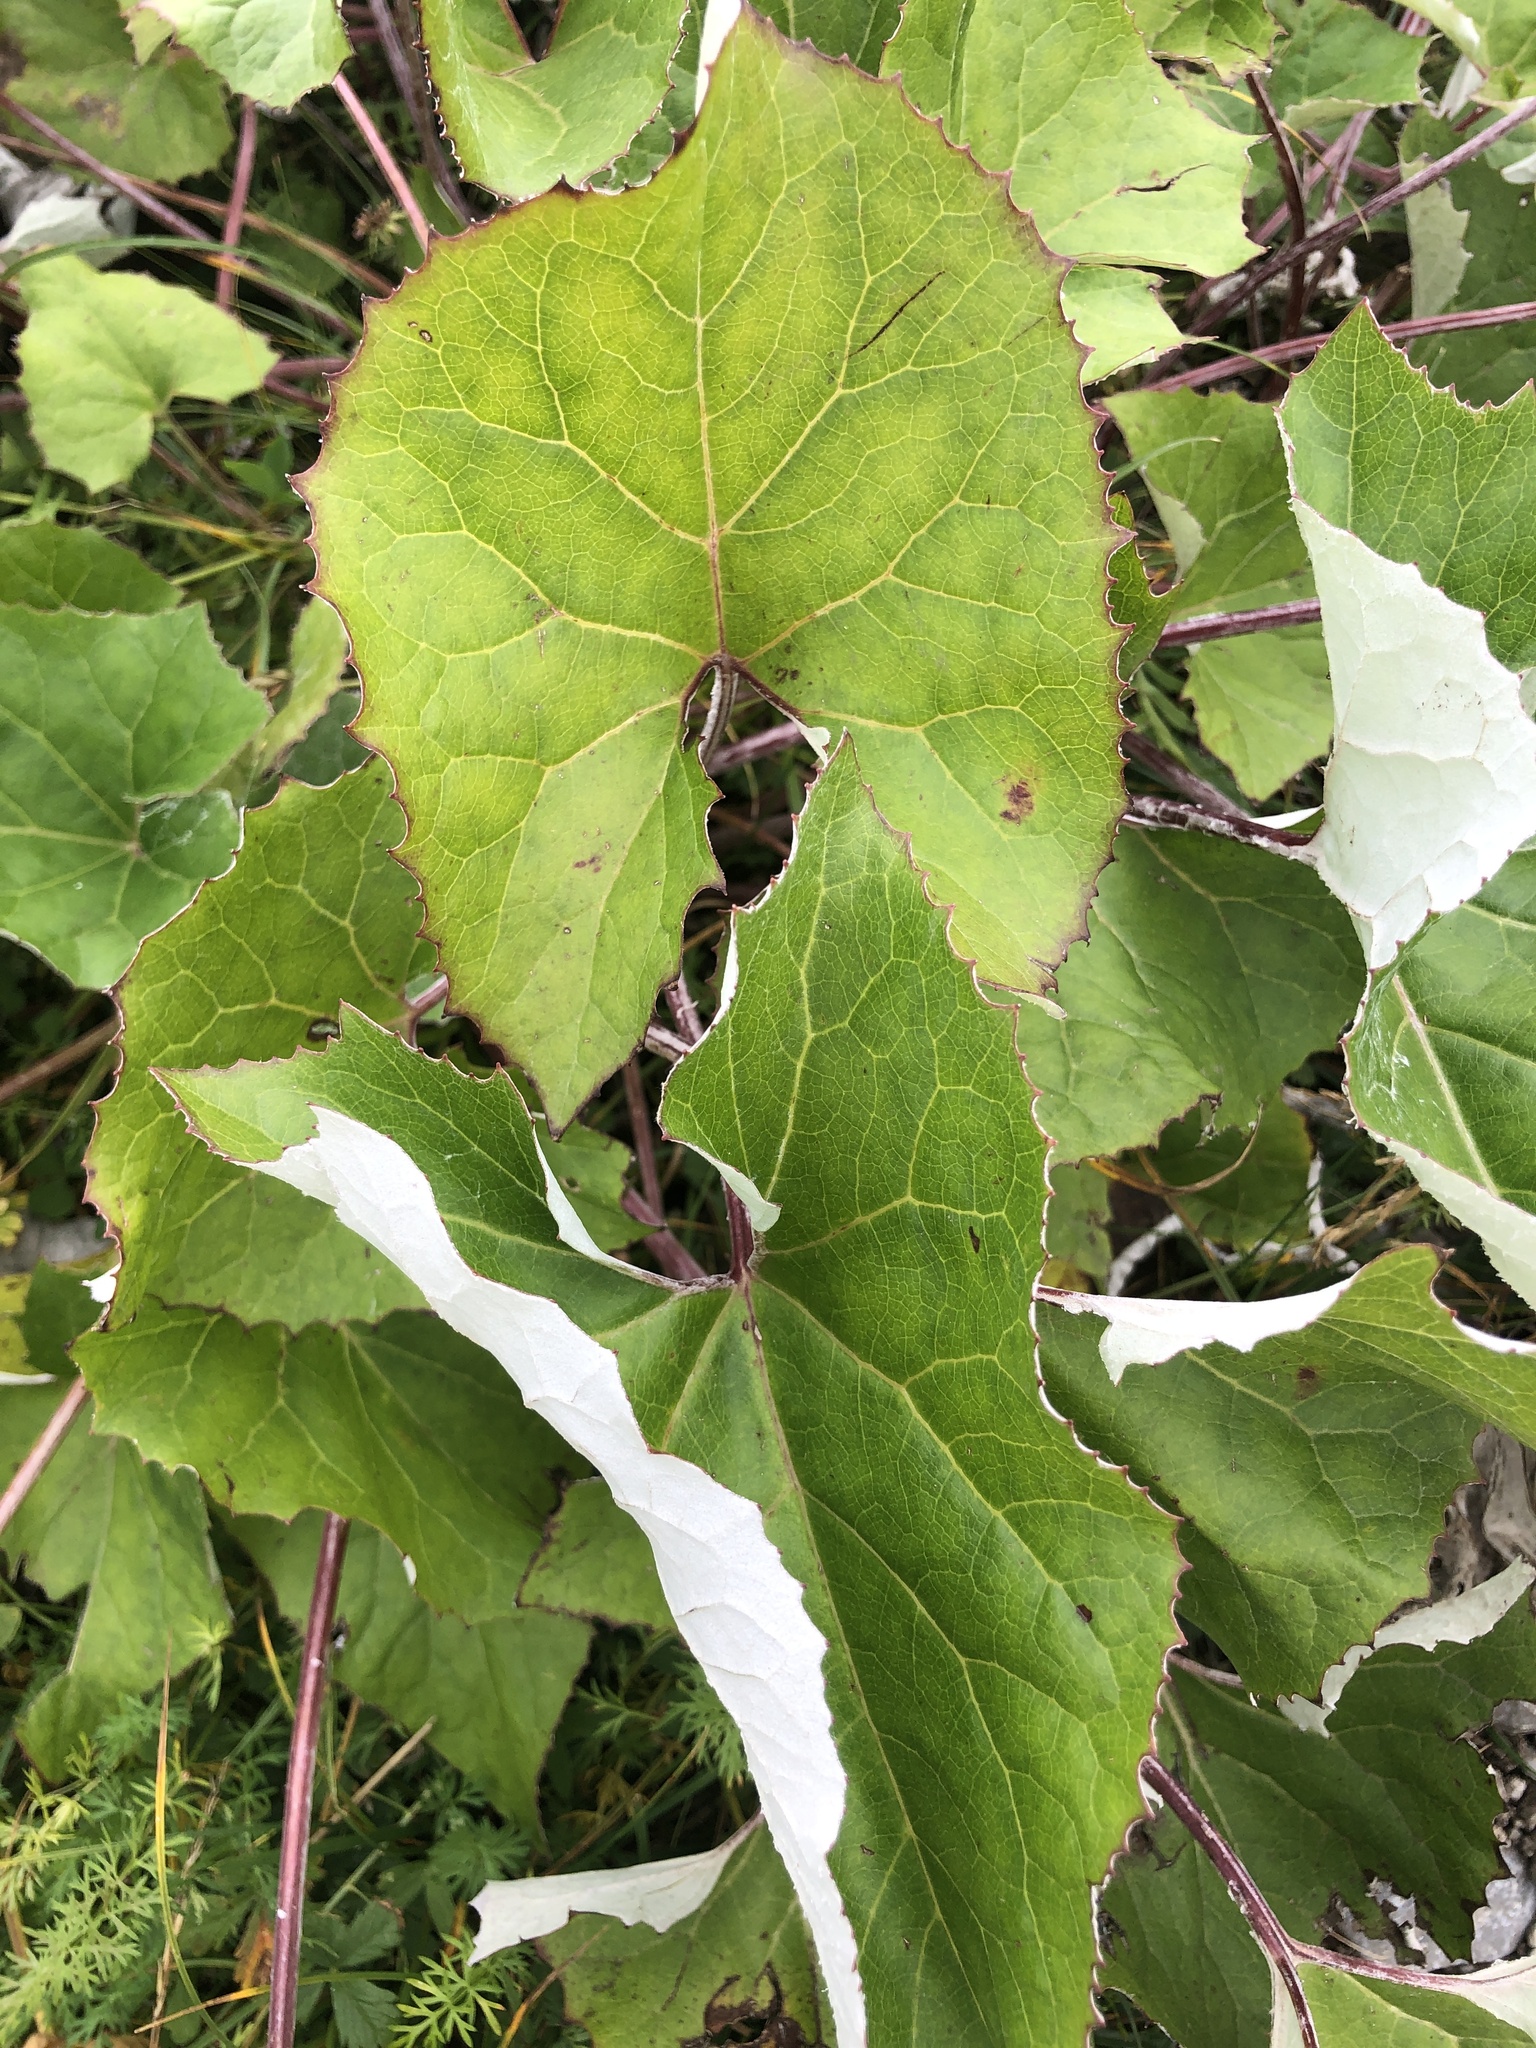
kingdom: Plantae
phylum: Tracheophyta
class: Magnoliopsida
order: Asterales
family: Asteraceae
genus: Petasites
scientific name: Petasites paradoxus
